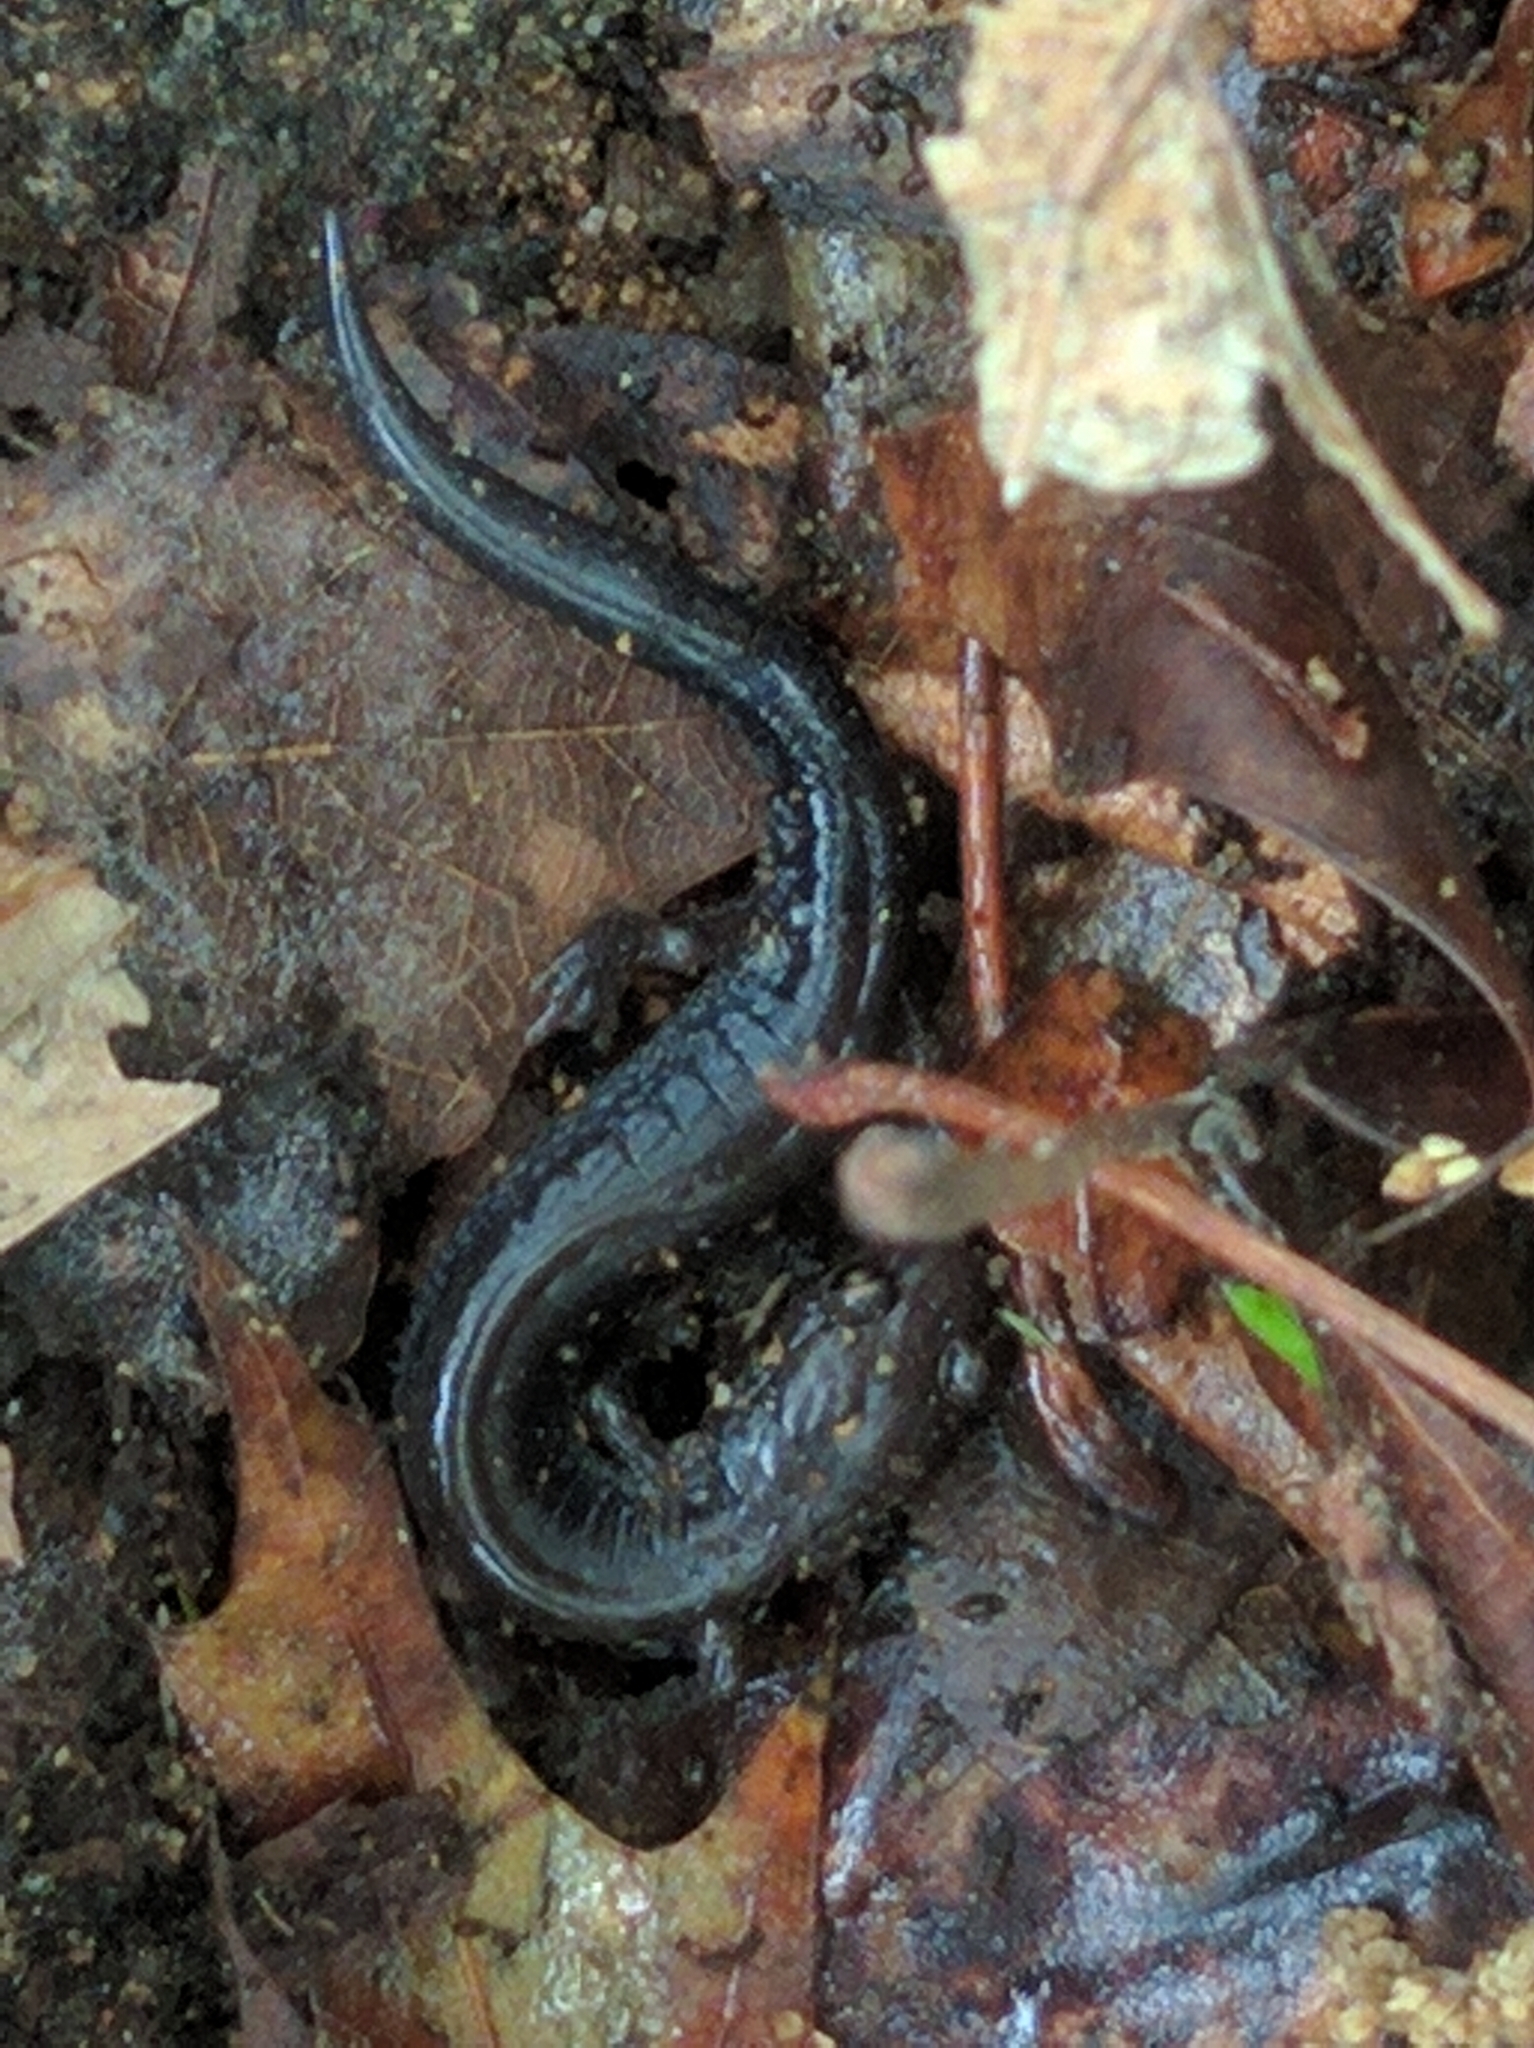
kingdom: Animalia
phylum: Chordata
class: Amphibia
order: Caudata
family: Plethodontidae
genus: Plethodon
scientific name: Plethodon cinereus
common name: Redback salamander
